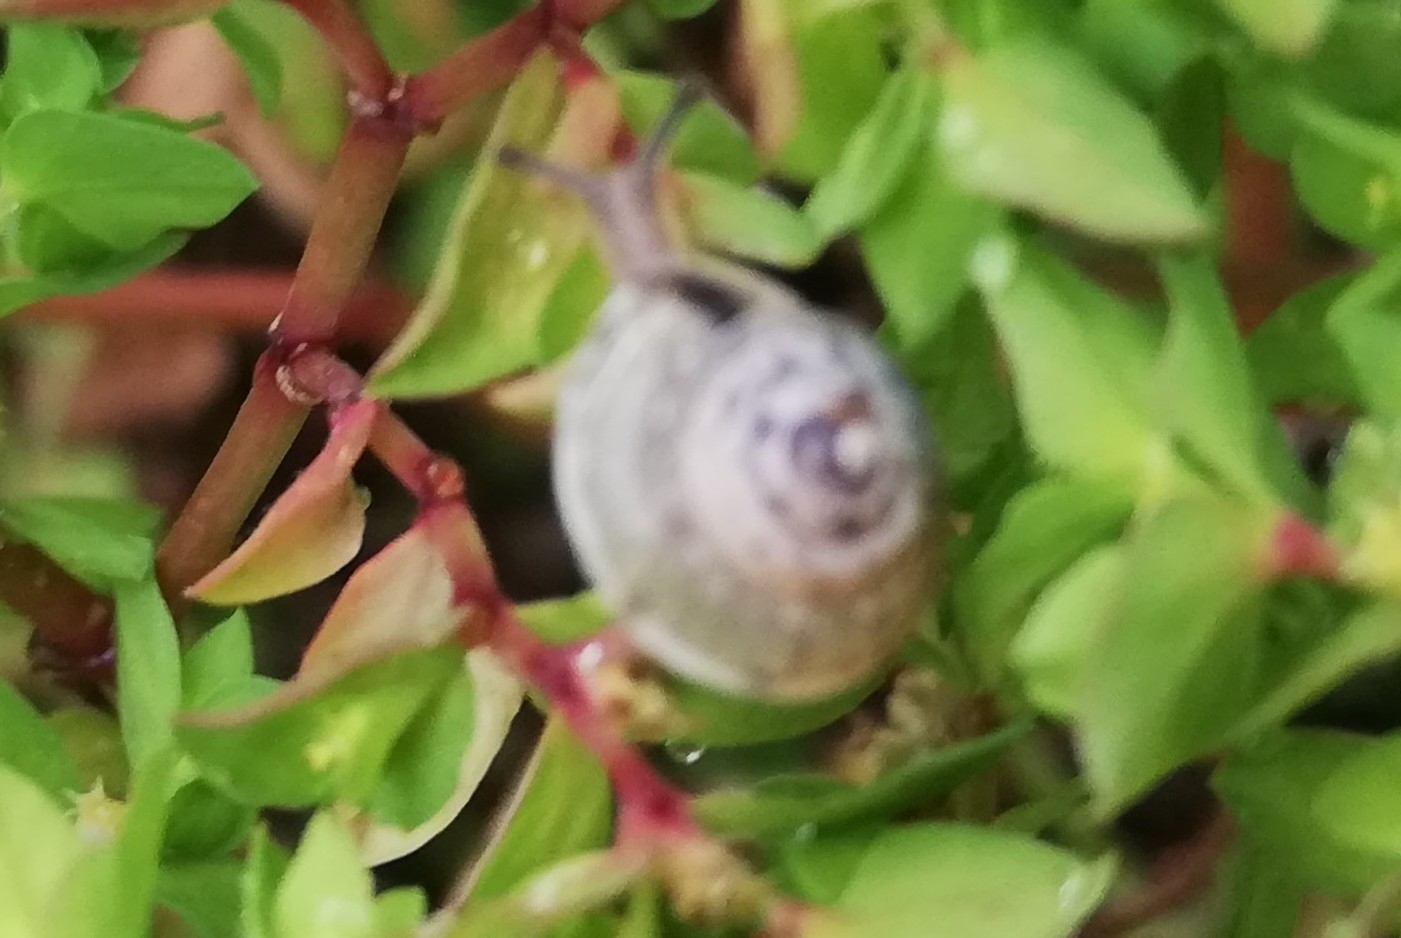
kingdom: Animalia
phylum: Mollusca
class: Gastropoda
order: Stylommatophora
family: Hygromiidae
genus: Hygromia
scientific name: Hygromia cinctella
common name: Girdled snail
